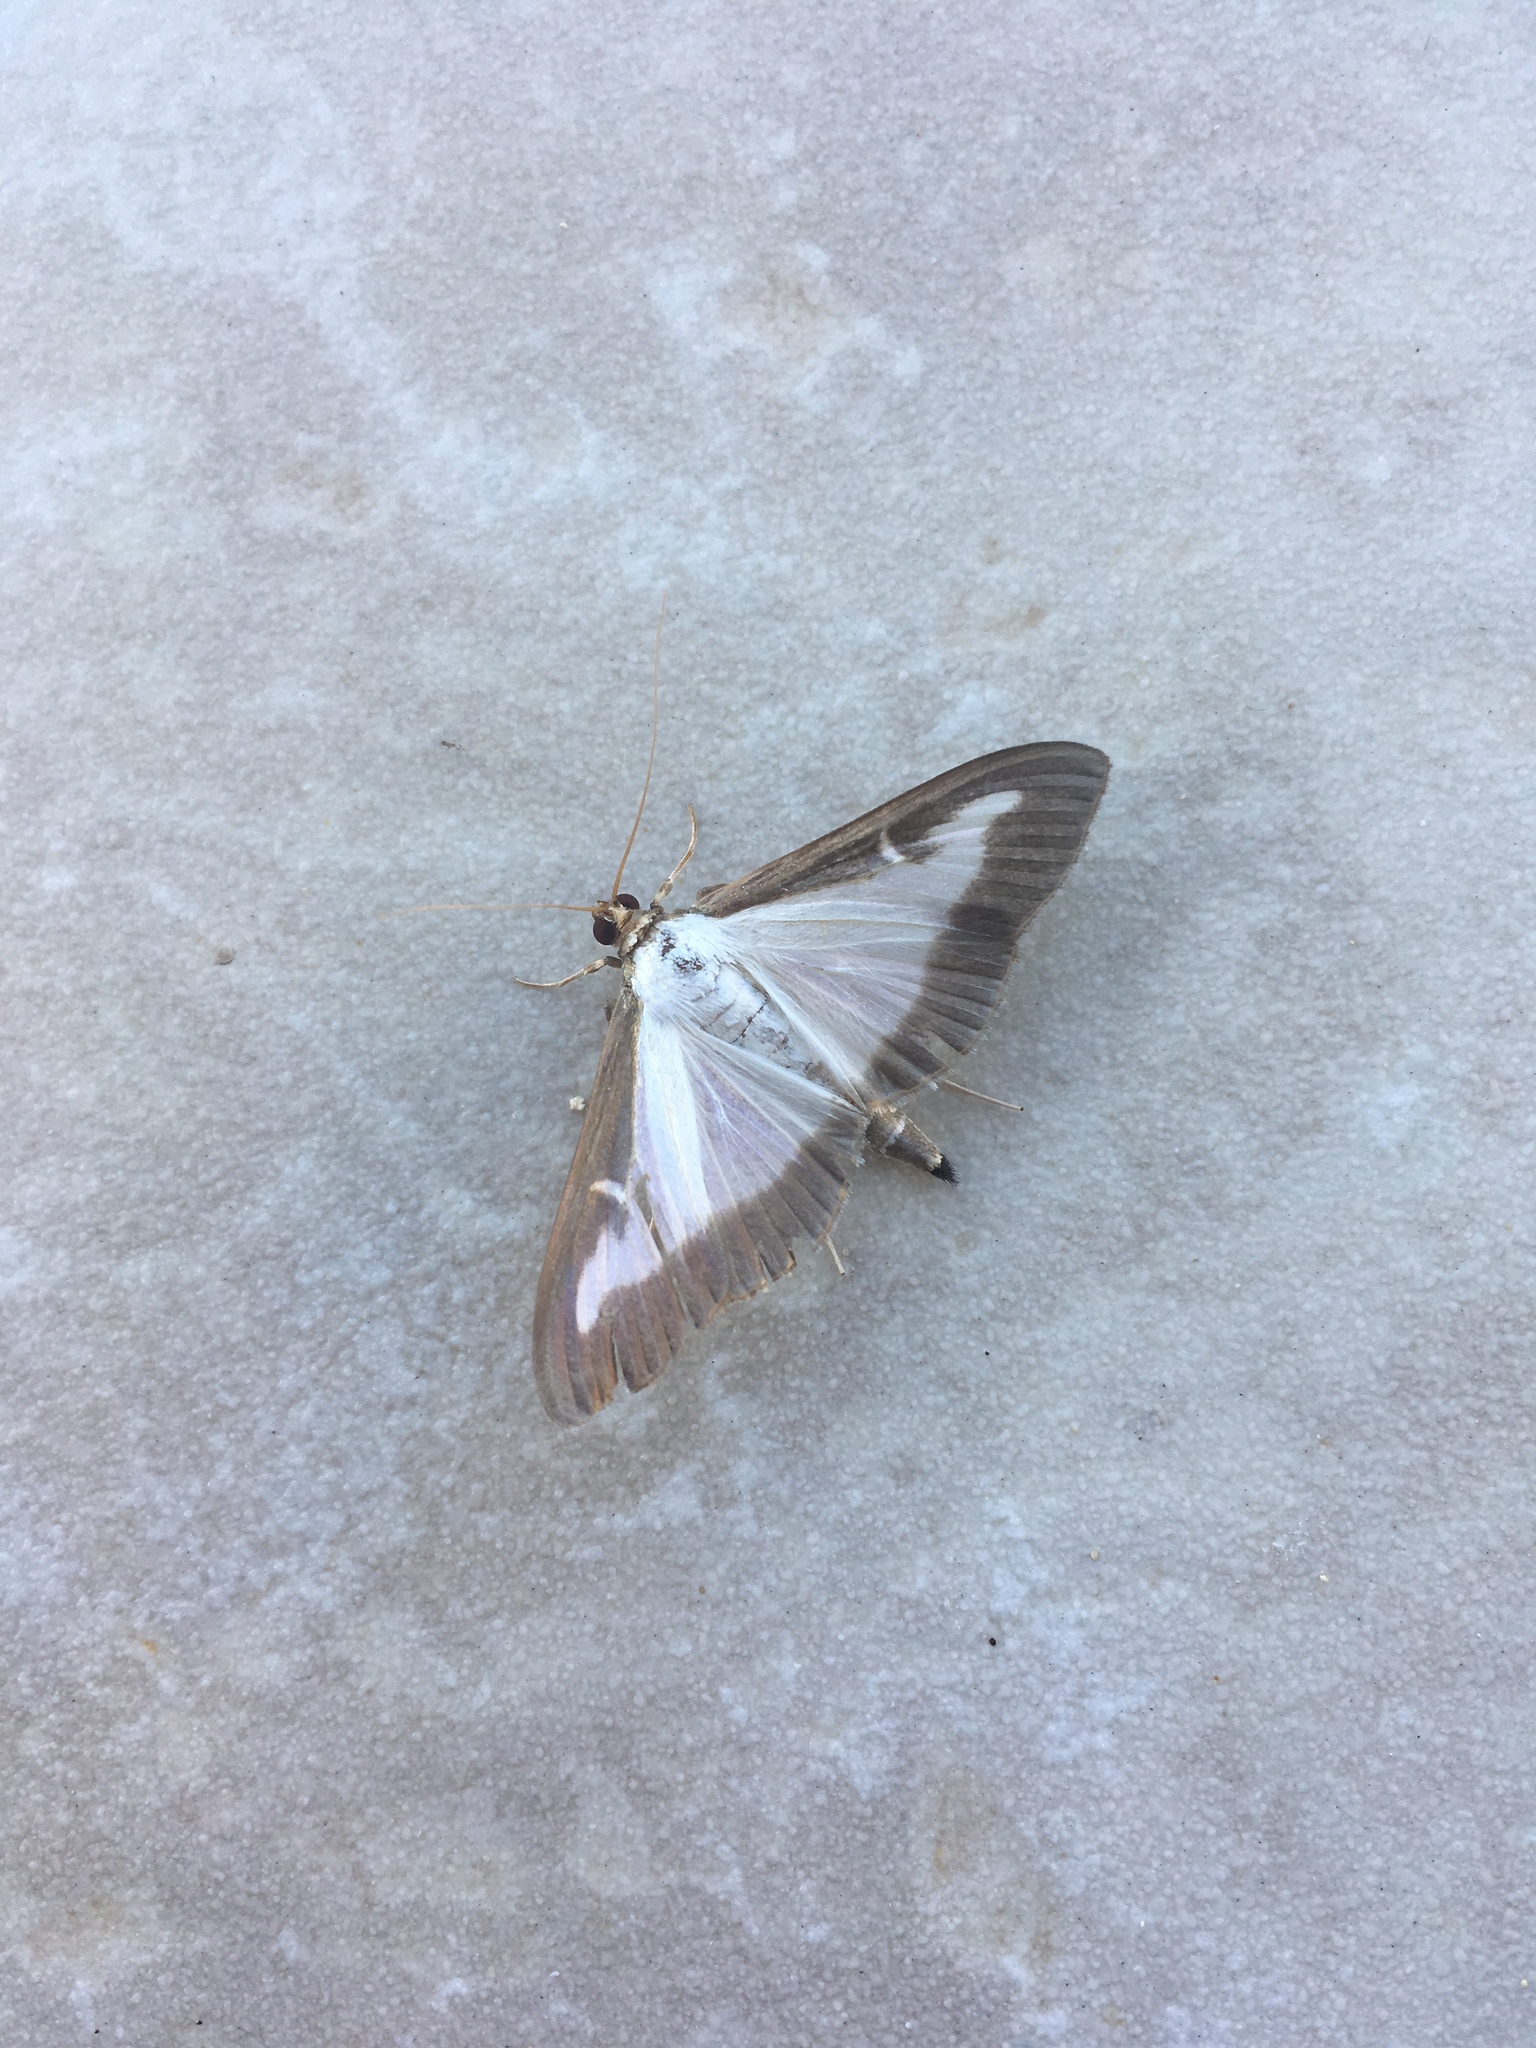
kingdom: Animalia
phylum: Arthropoda
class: Insecta
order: Lepidoptera
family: Crambidae
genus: Cydalima
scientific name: Cydalima perspectalis
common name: Box tree moth
